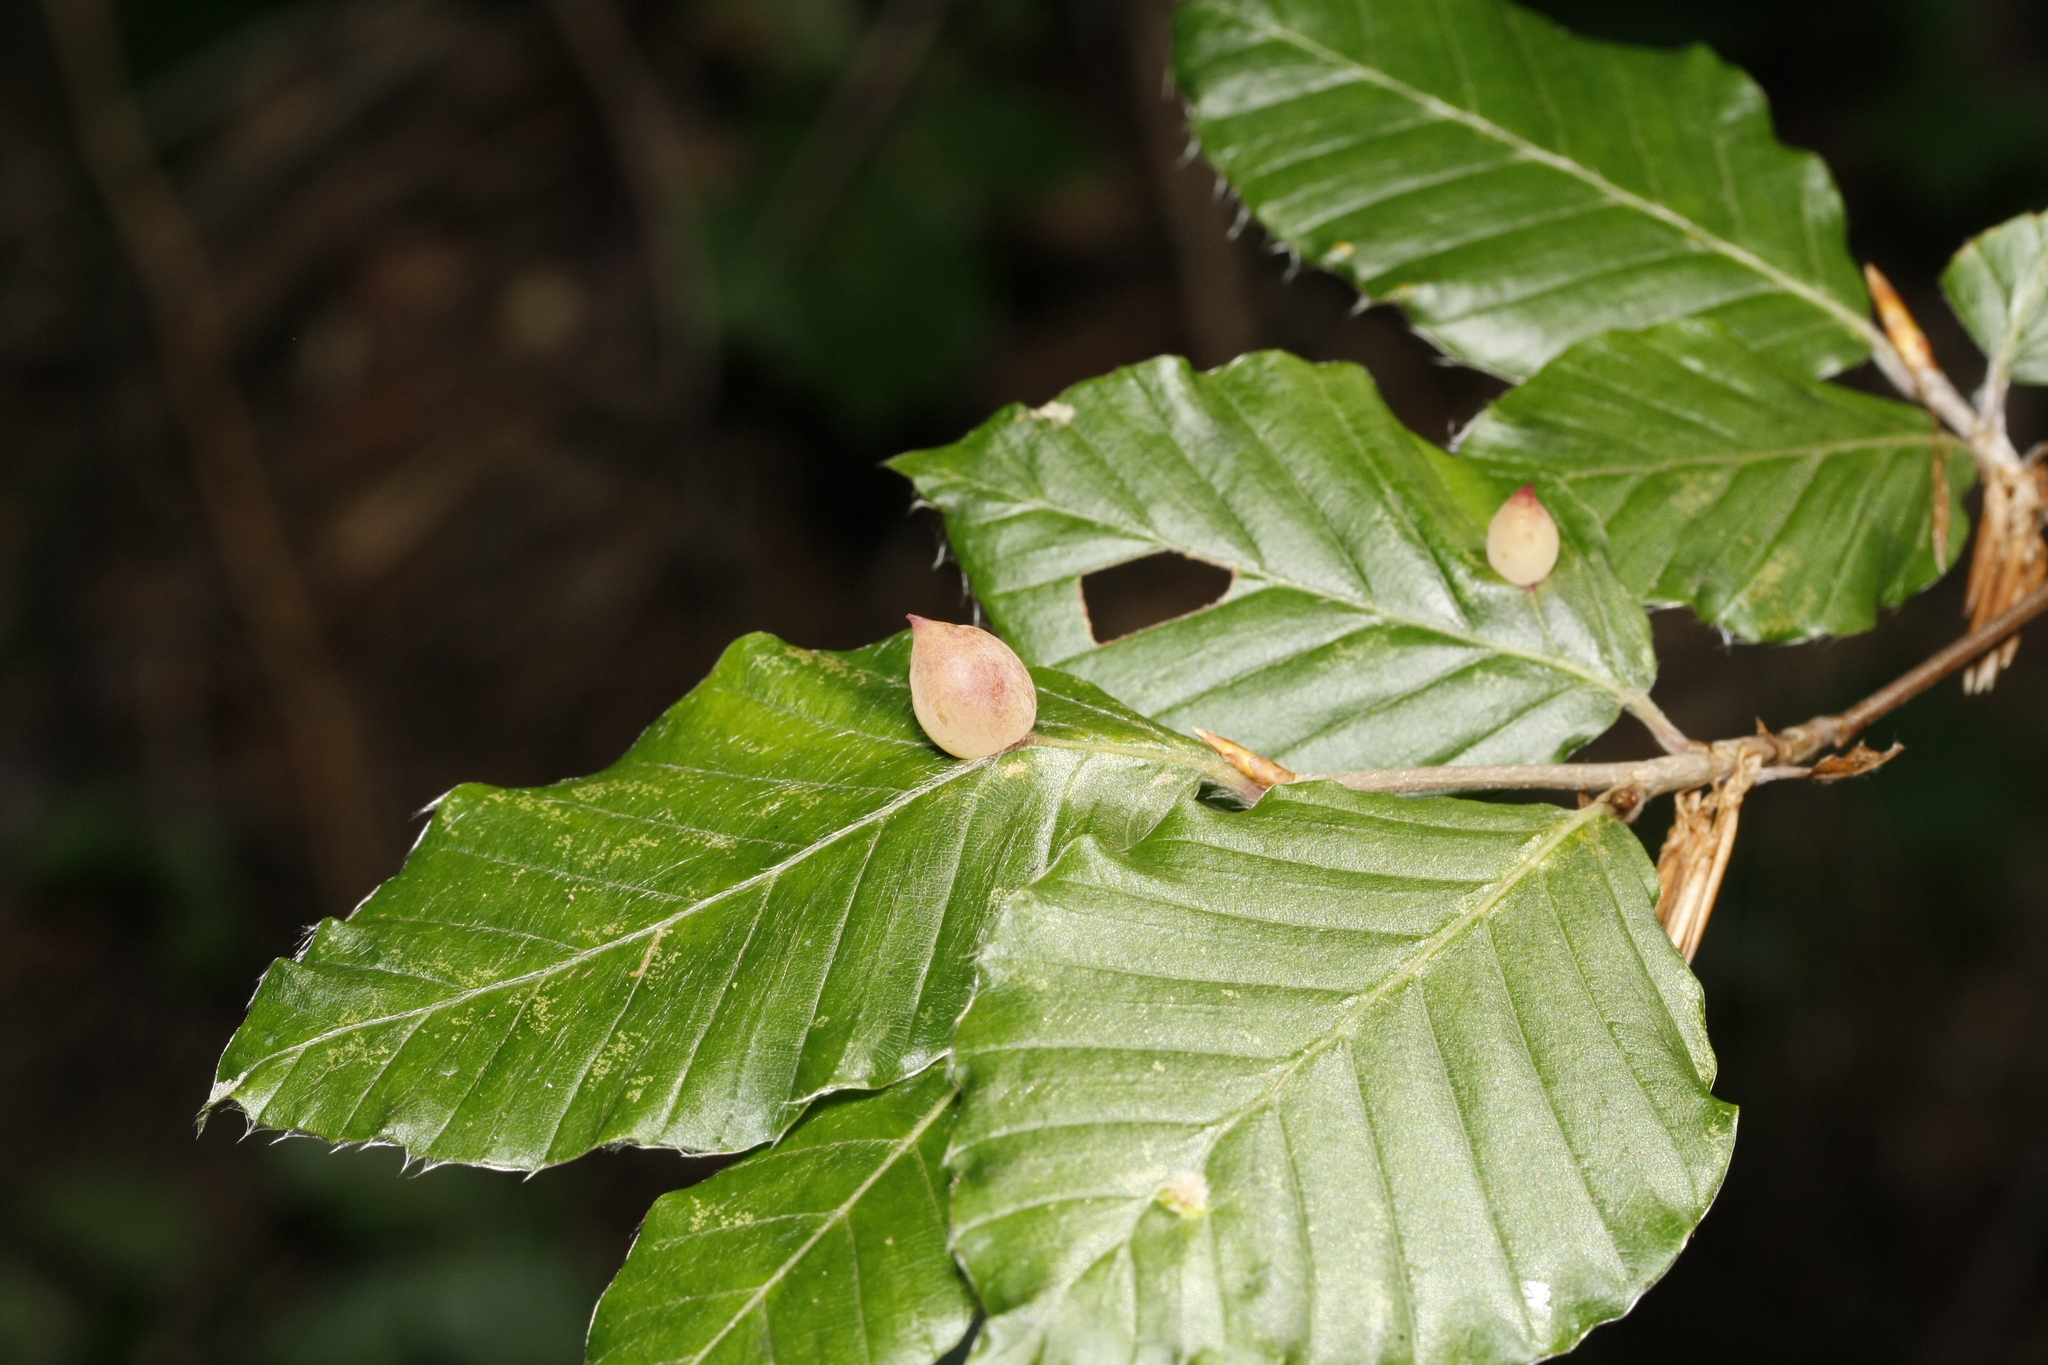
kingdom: Animalia
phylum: Arthropoda
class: Insecta
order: Diptera
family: Cecidomyiidae
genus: Mikiola
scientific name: Mikiola fagi
